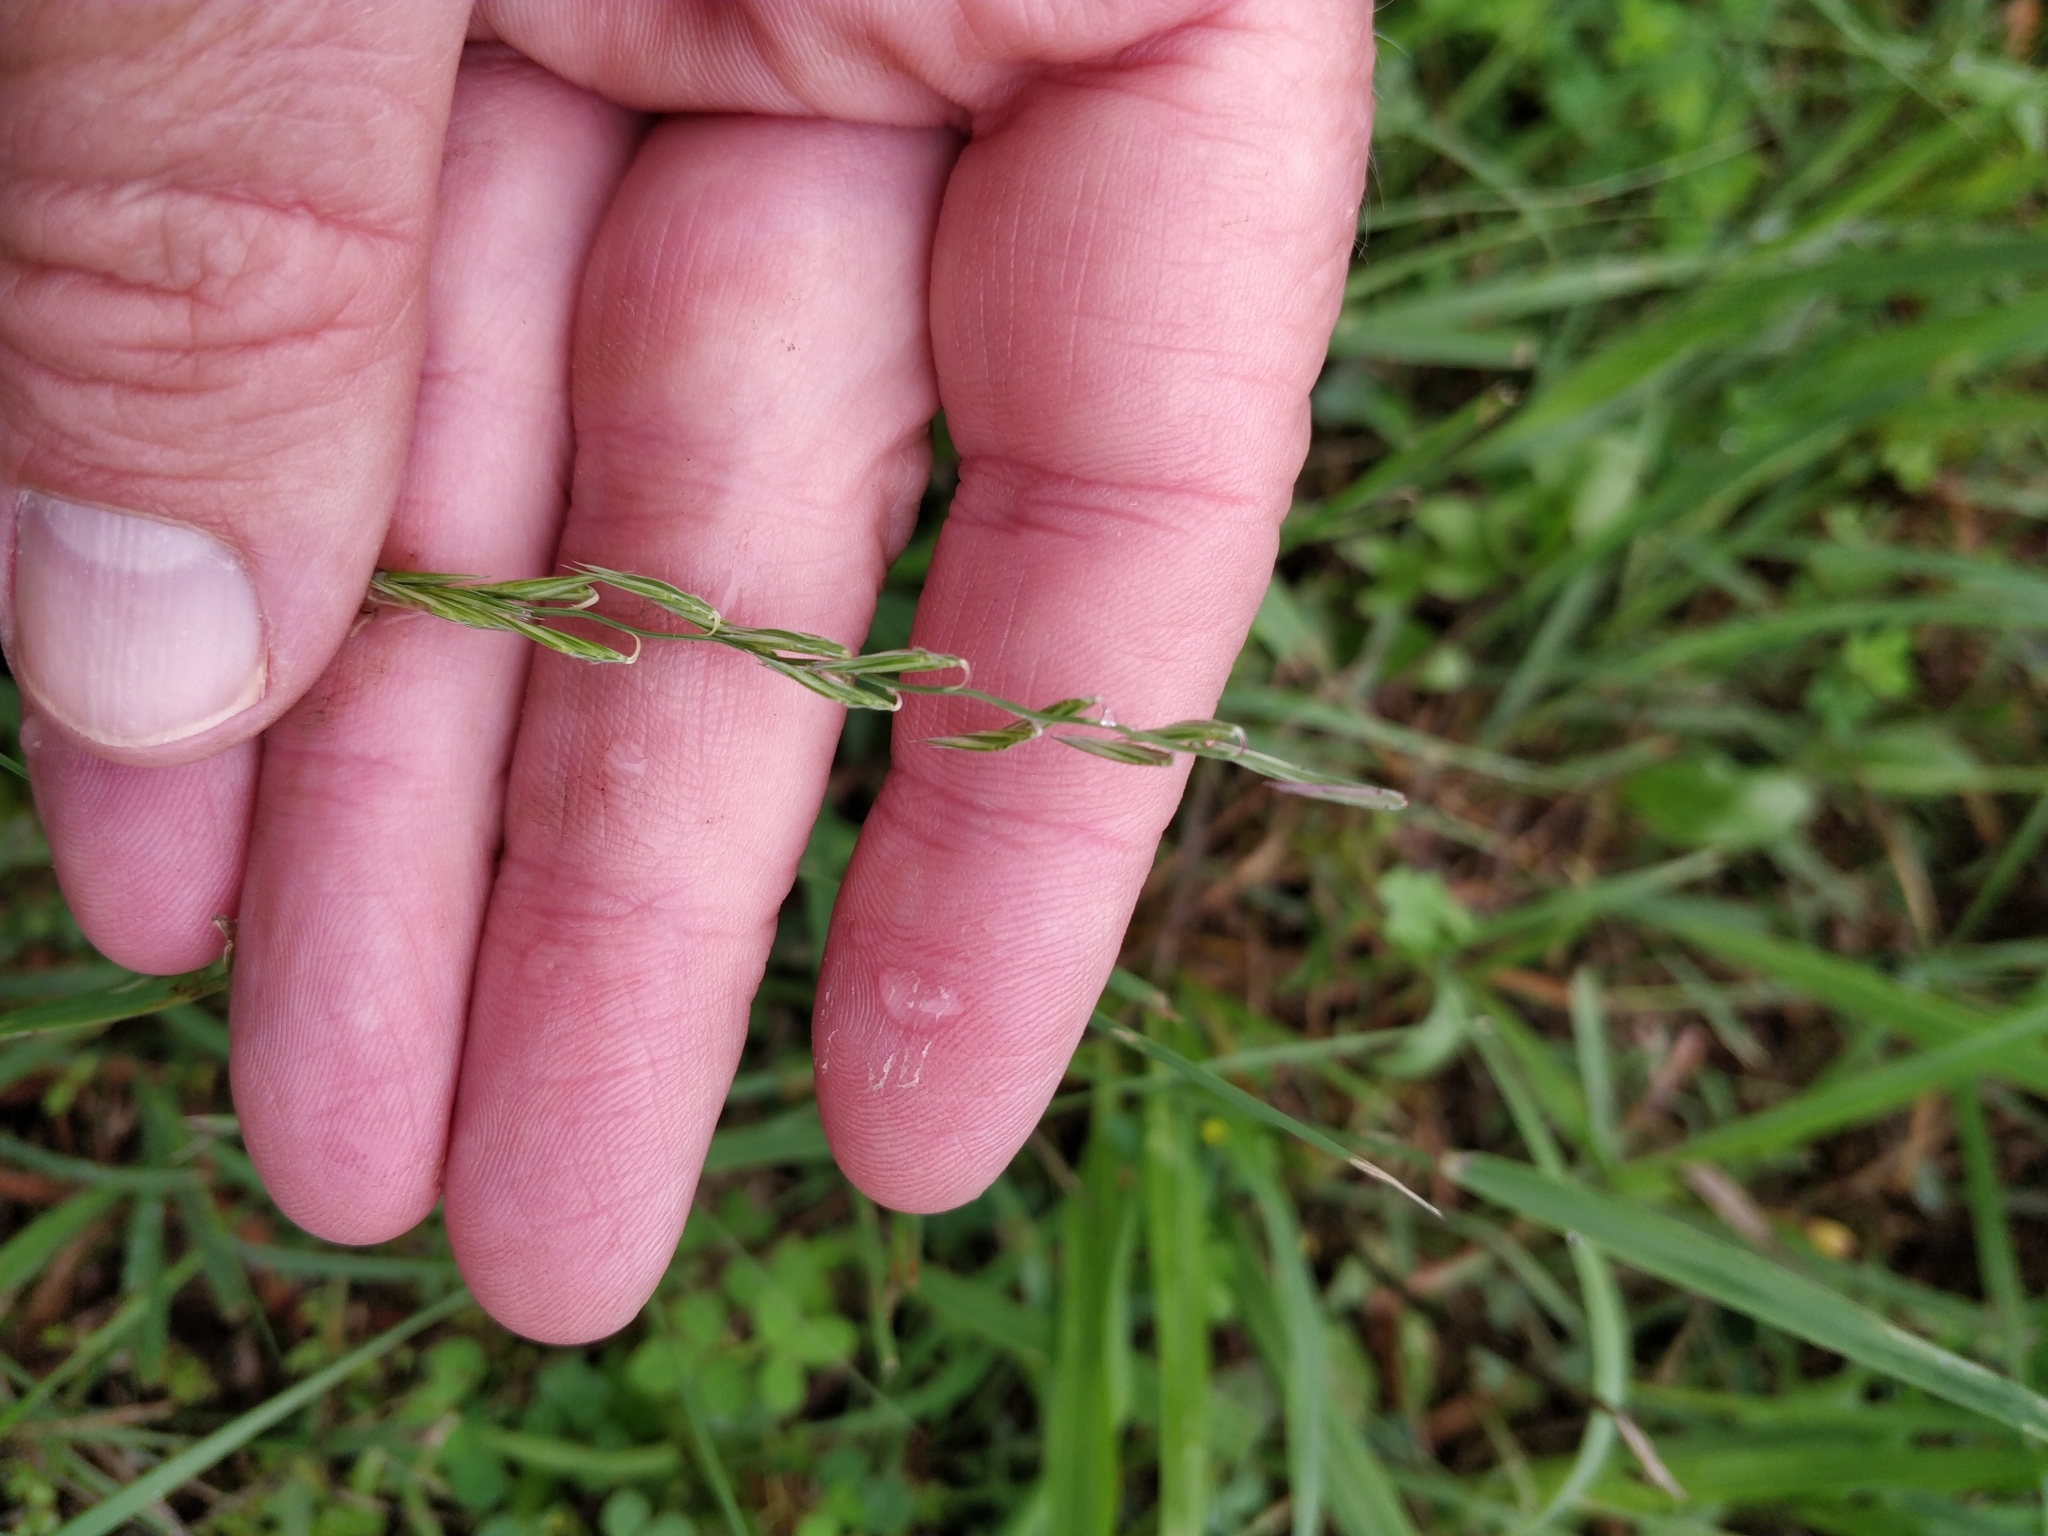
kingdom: Plantae
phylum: Tracheophyta
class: Liliopsida
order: Poales
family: Poaceae
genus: Bouteloua
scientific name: Bouteloua curtipendula
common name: Side-oats grama
